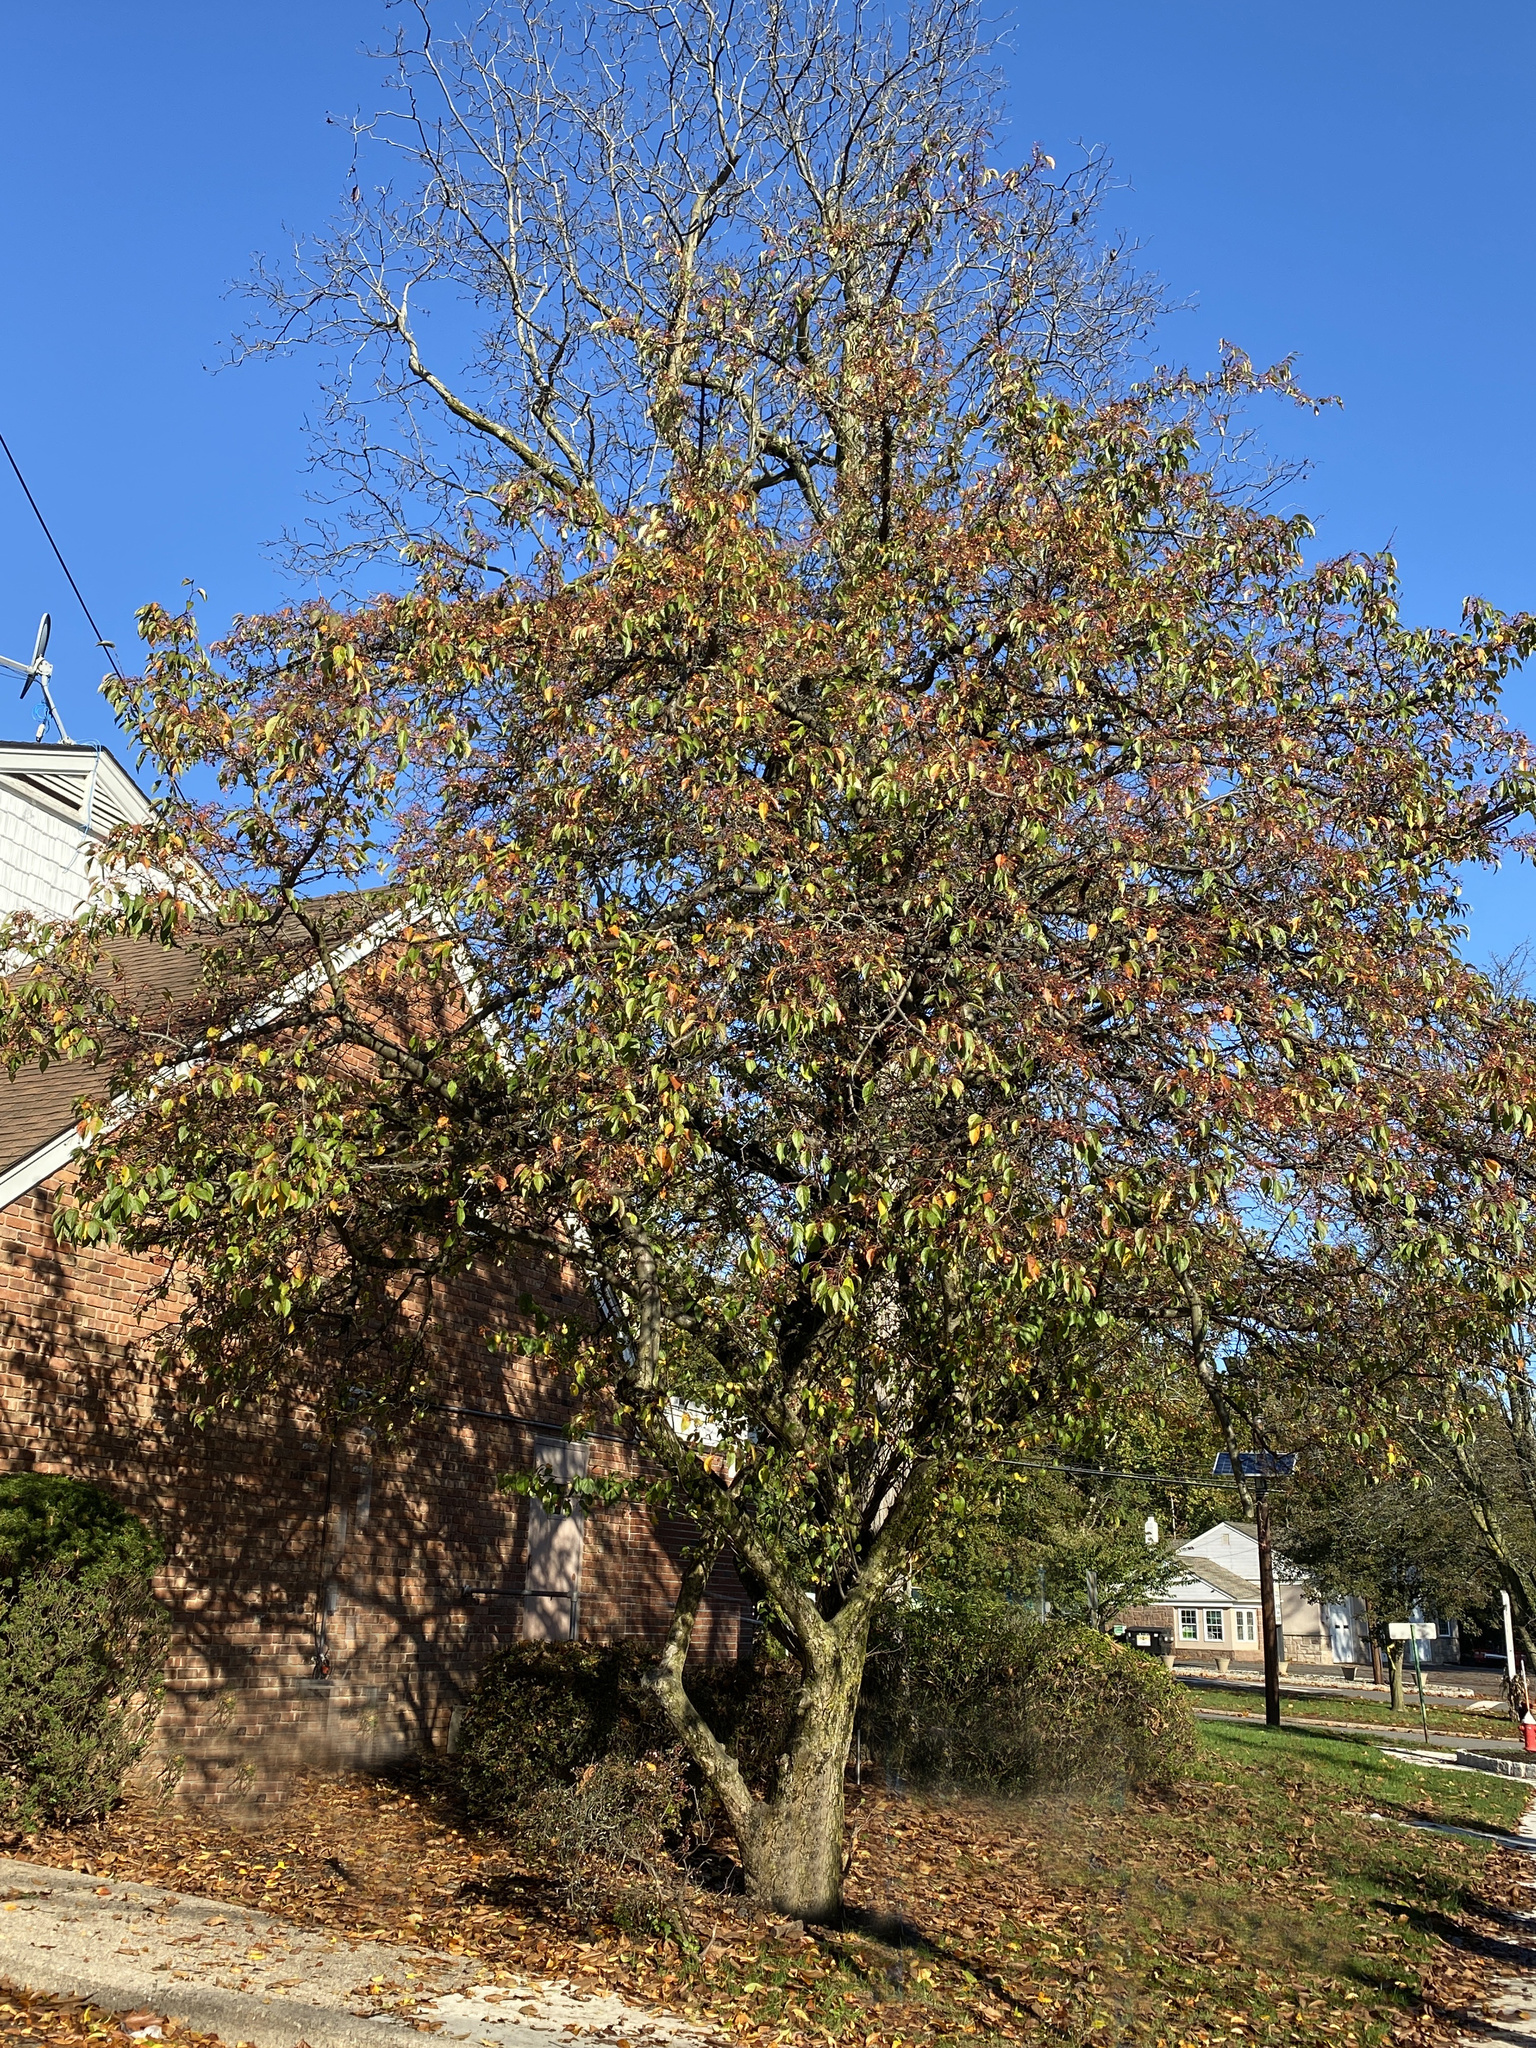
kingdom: Animalia
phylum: Chordata
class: Aves
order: Passeriformes
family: Sturnidae
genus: Sturnus
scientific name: Sturnus vulgaris
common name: Common starling
